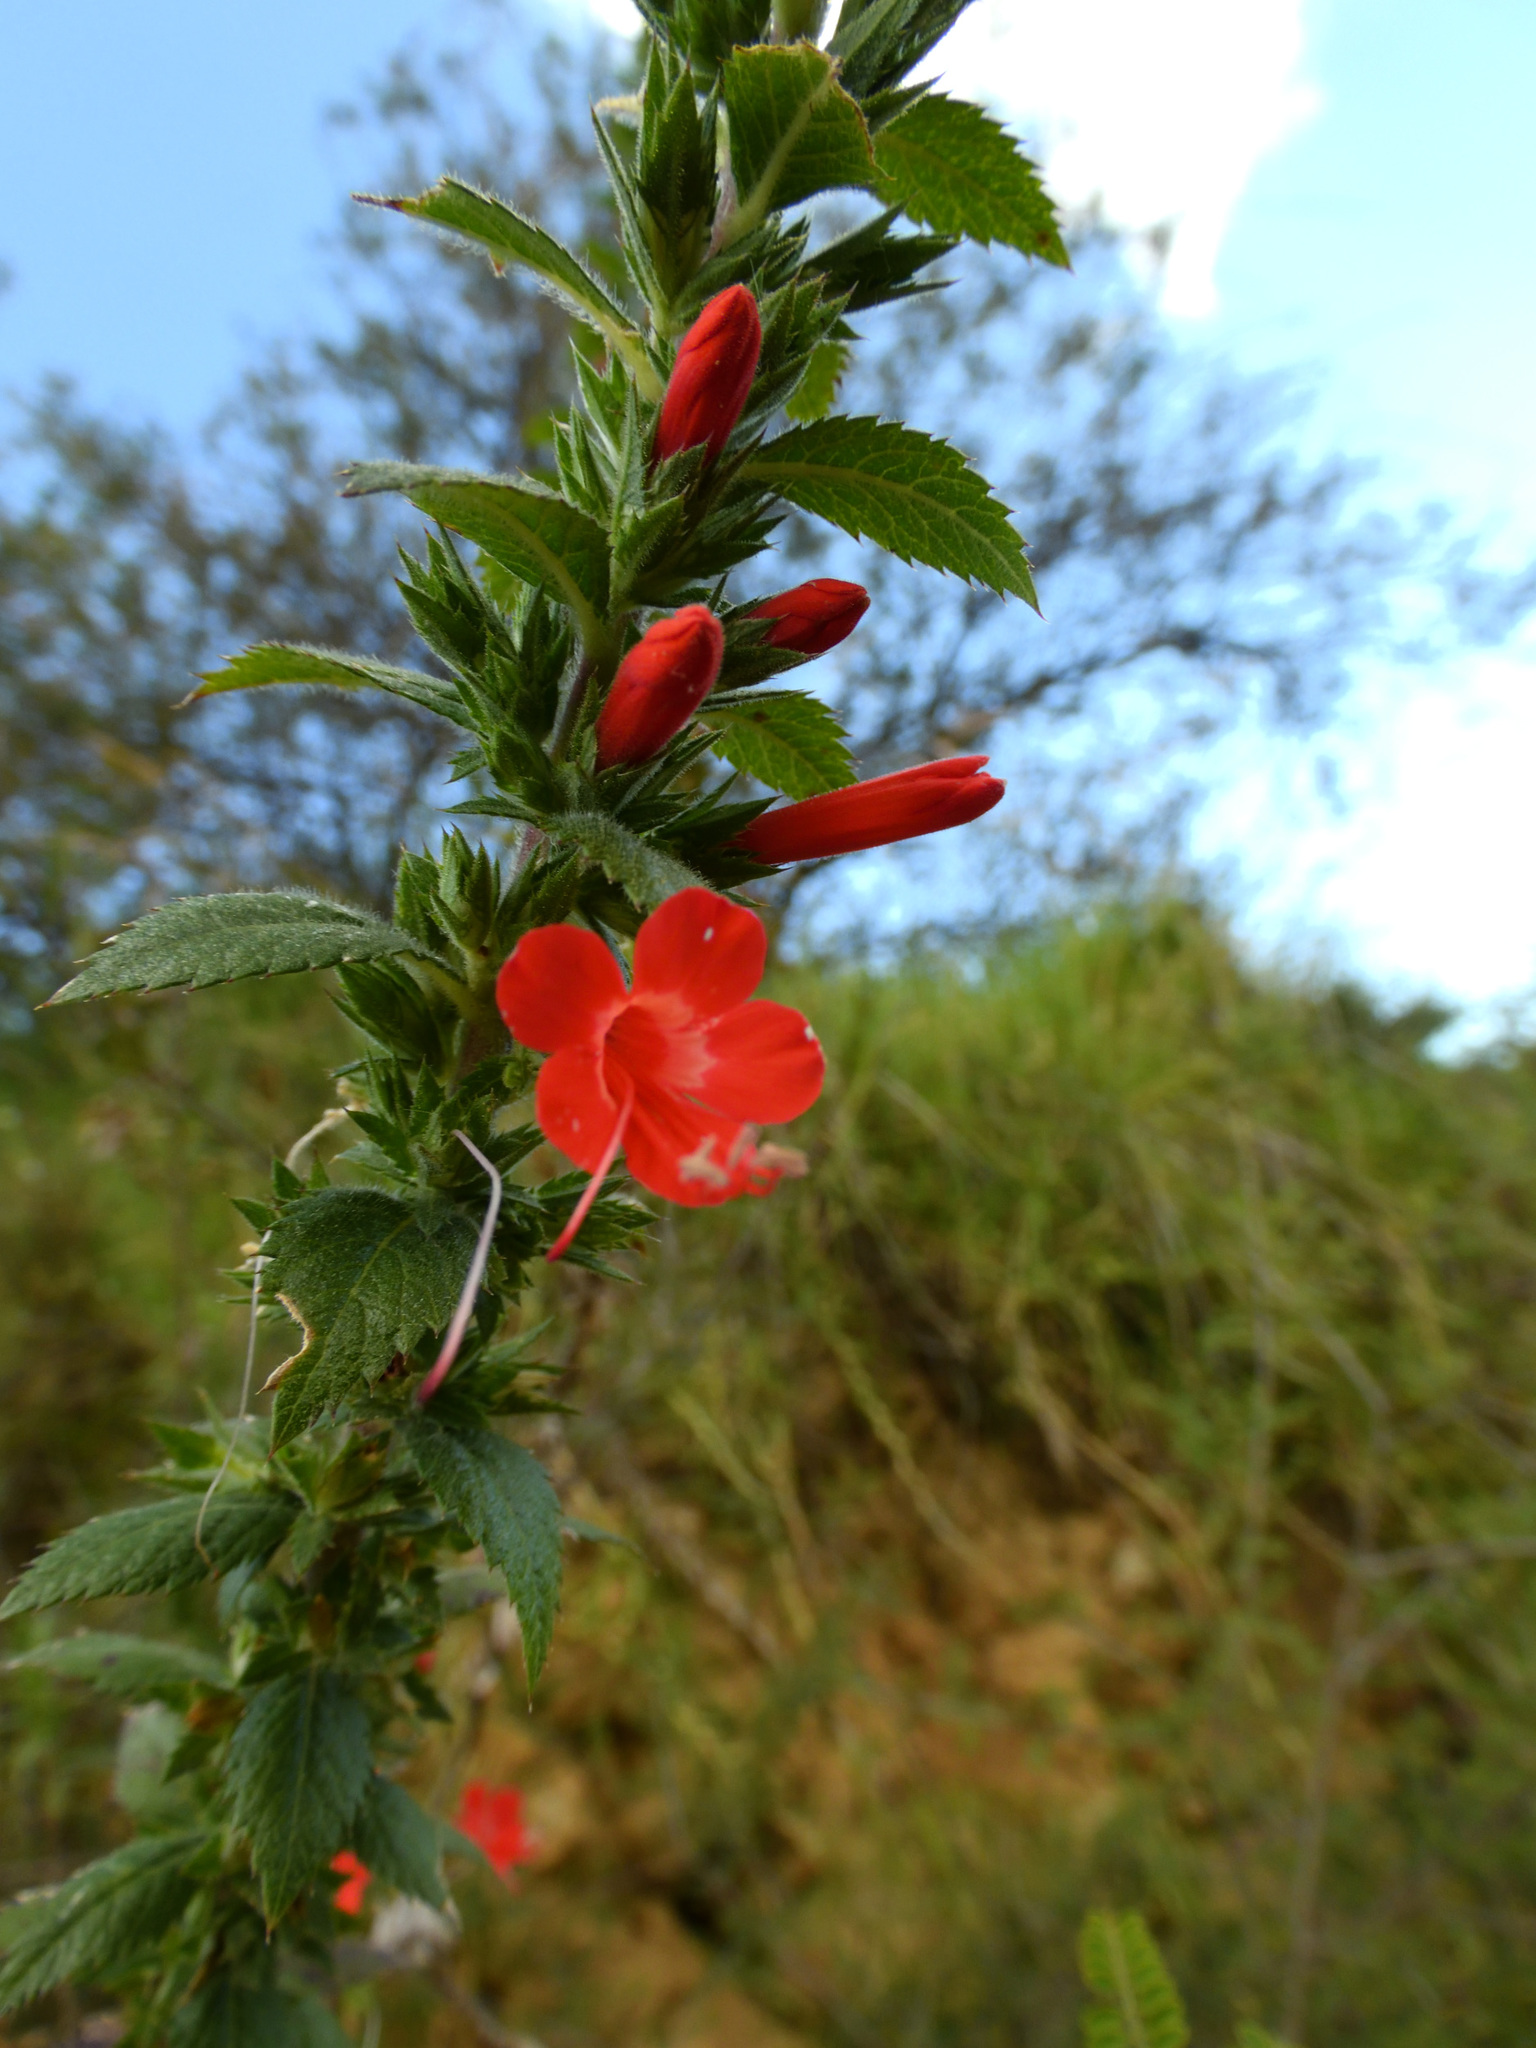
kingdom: Plantae
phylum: Tracheophyta
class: Magnoliopsida
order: Ericales
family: Polemoniaceae
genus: Loeselia
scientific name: Loeselia mexicana
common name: Mexican false calico
